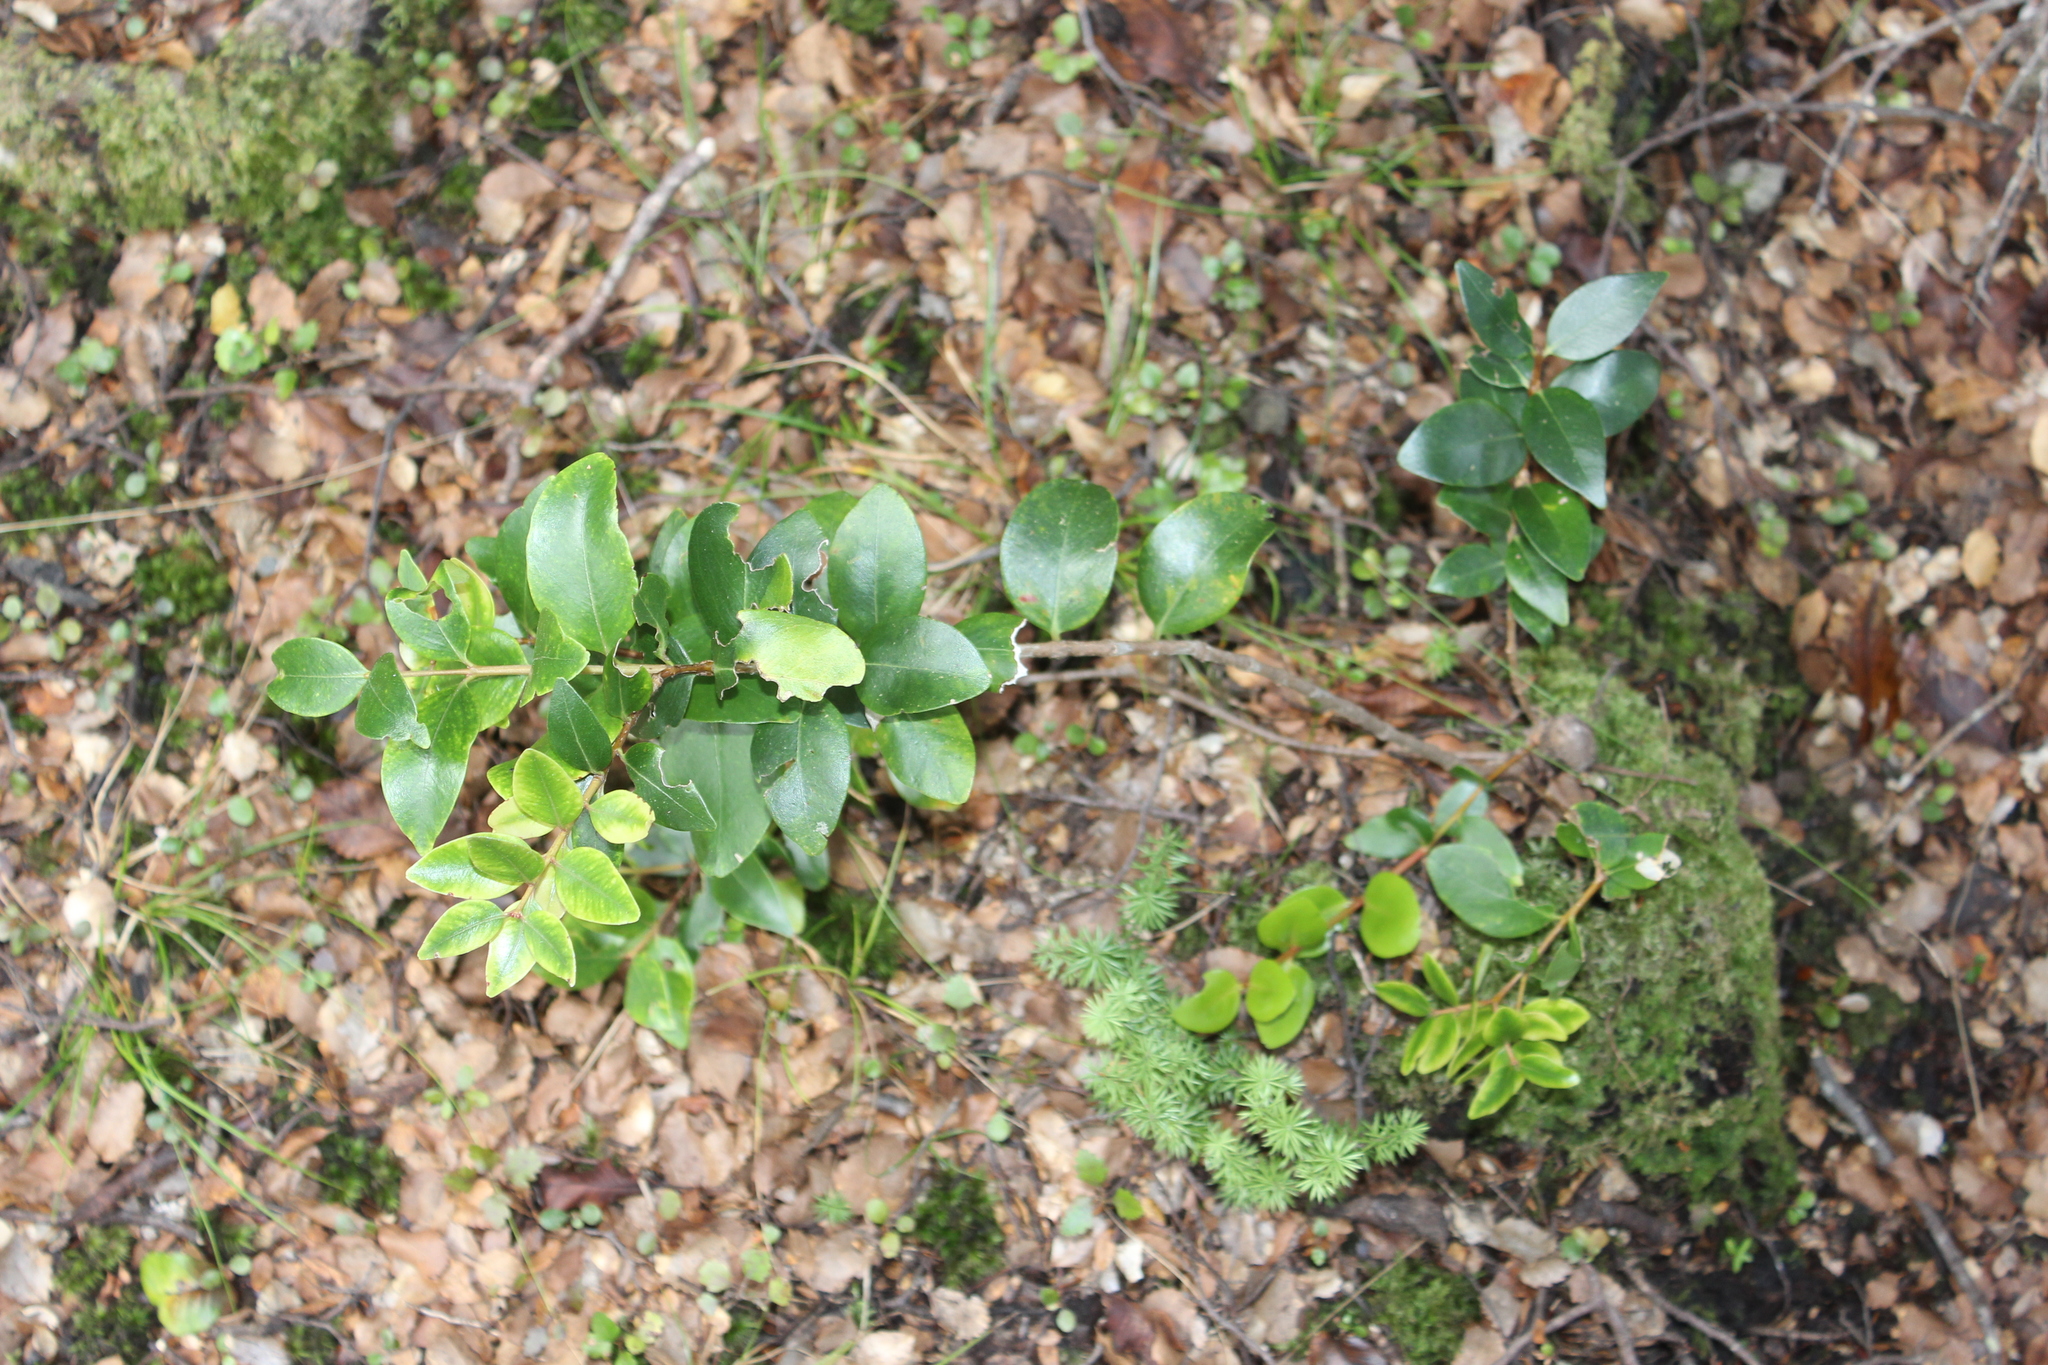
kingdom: Plantae
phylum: Tracheophyta
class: Magnoliopsida
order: Myrtales
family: Myrtaceae
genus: Metrosideros
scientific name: Metrosideros robusta
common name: Northern rata
